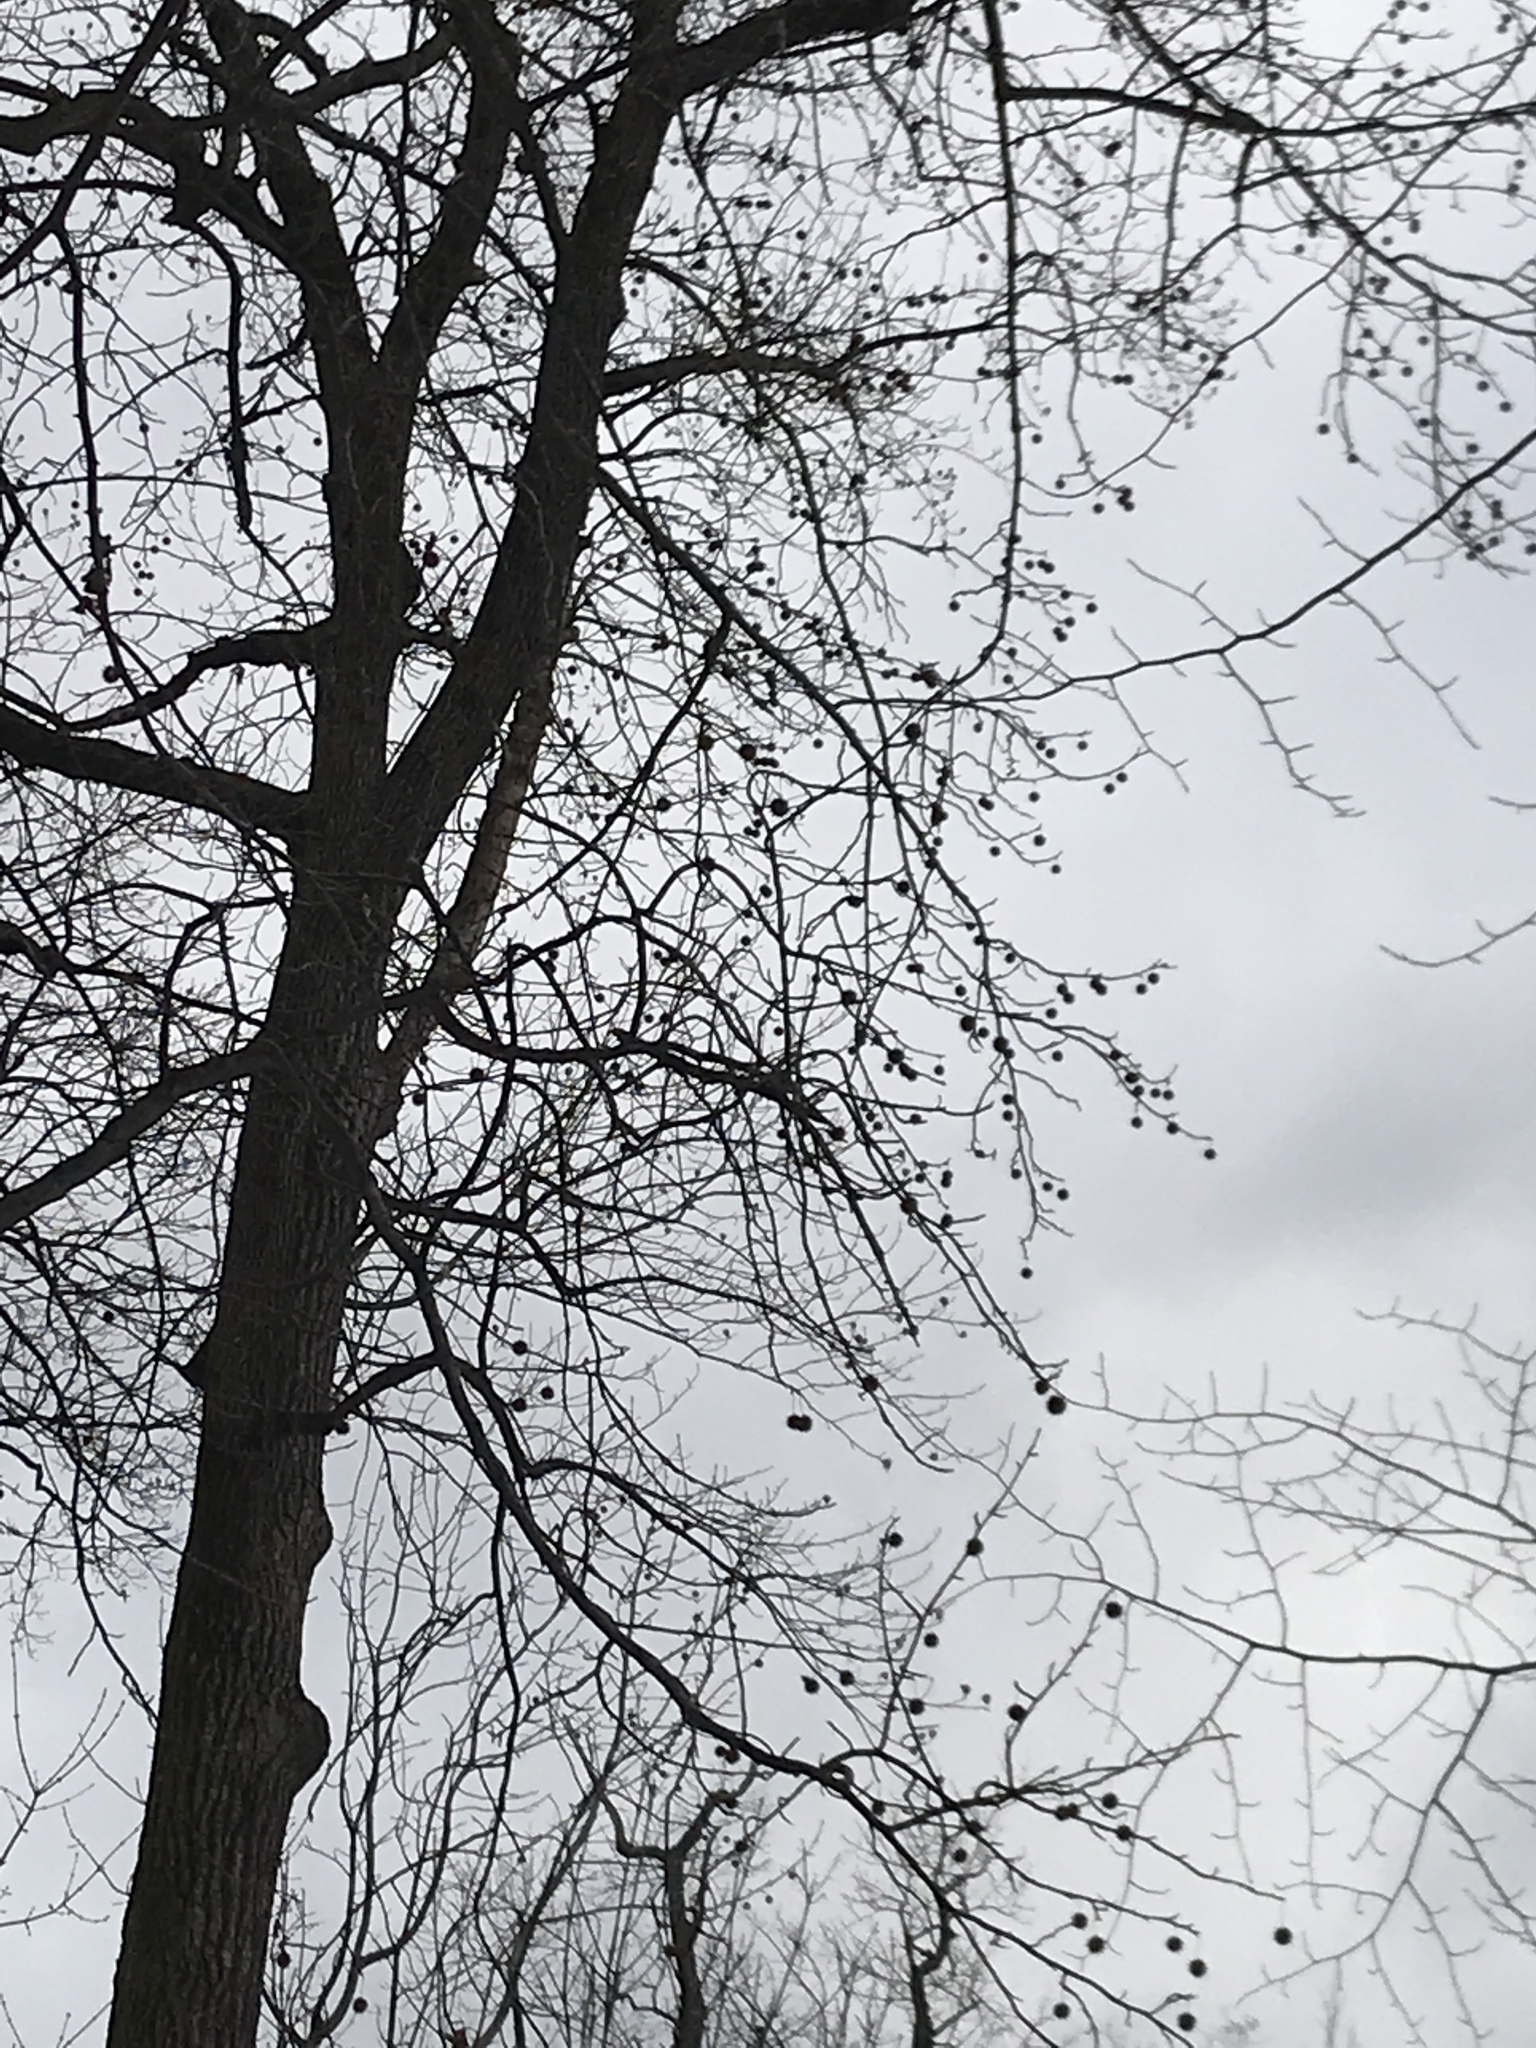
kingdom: Plantae
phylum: Tracheophyta
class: Magnoliopsida
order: Saxifragales
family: Altingiaceae
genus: Liquidambar
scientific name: Liquidambar styraciflua
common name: Sweet gum
